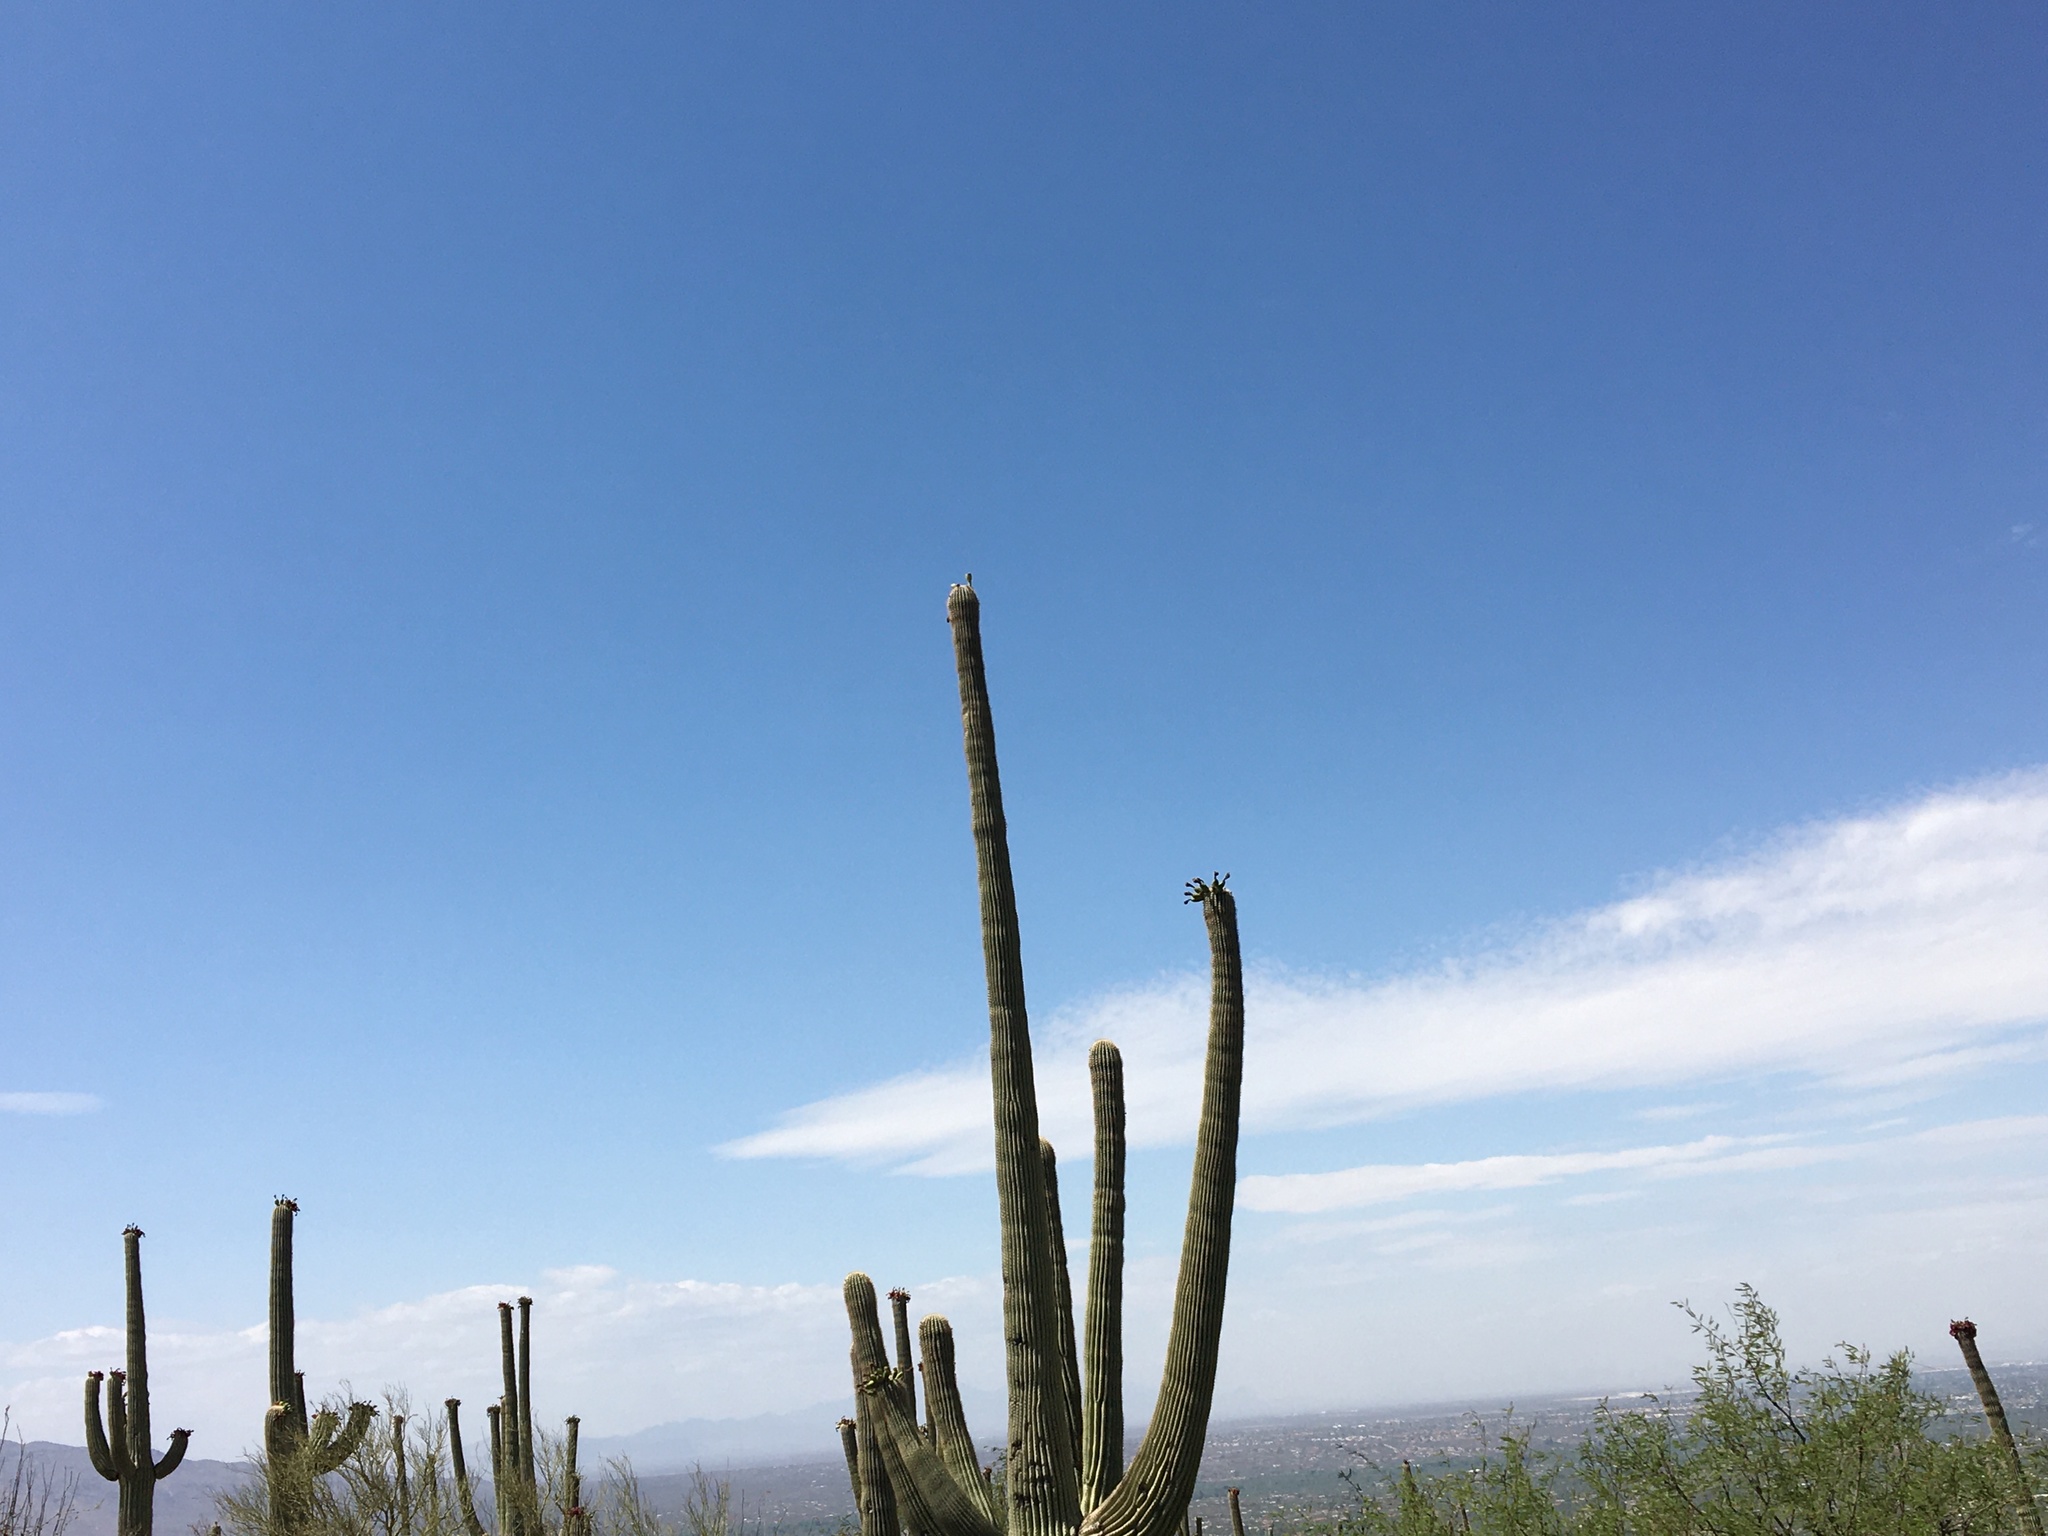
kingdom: Plantae
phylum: Tracheophyta
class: Magnoliopsida
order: Caryophyllales
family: Cactaceae
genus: Carnegiea
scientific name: Carnegiea gigantea
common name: Saguaro
